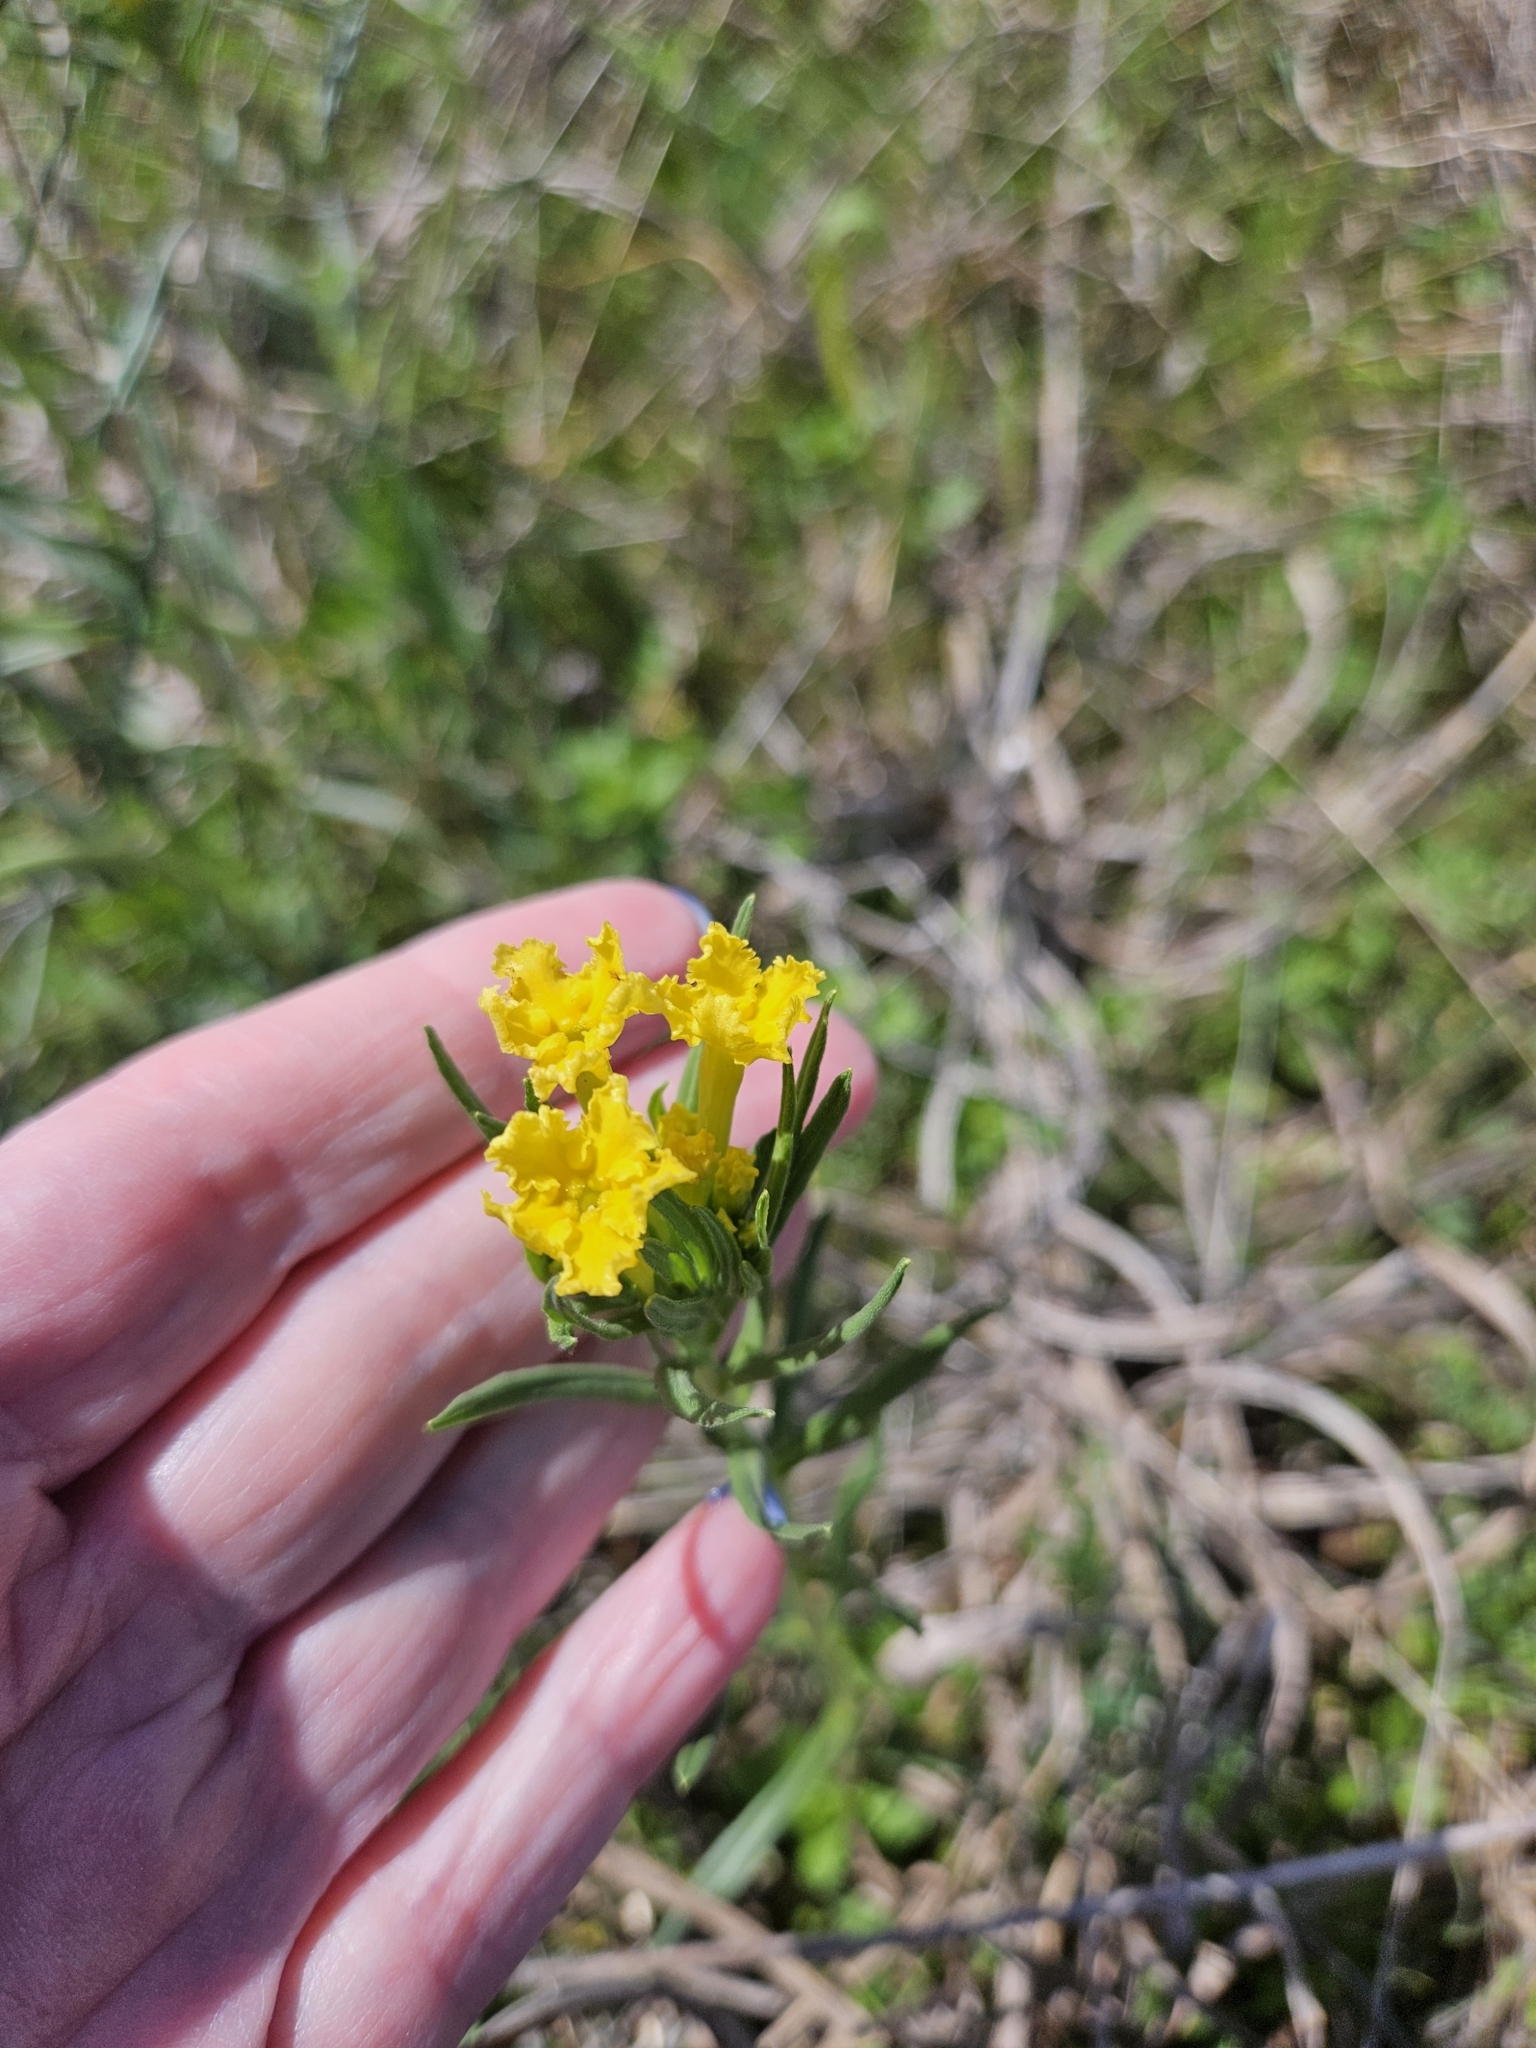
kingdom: Plantae
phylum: Tracheophyta
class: Magnoliopsida
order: Boraginales
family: Boraginaceae
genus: Lithospermum
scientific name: Lithospermum incisum
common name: Fringed gromwell
